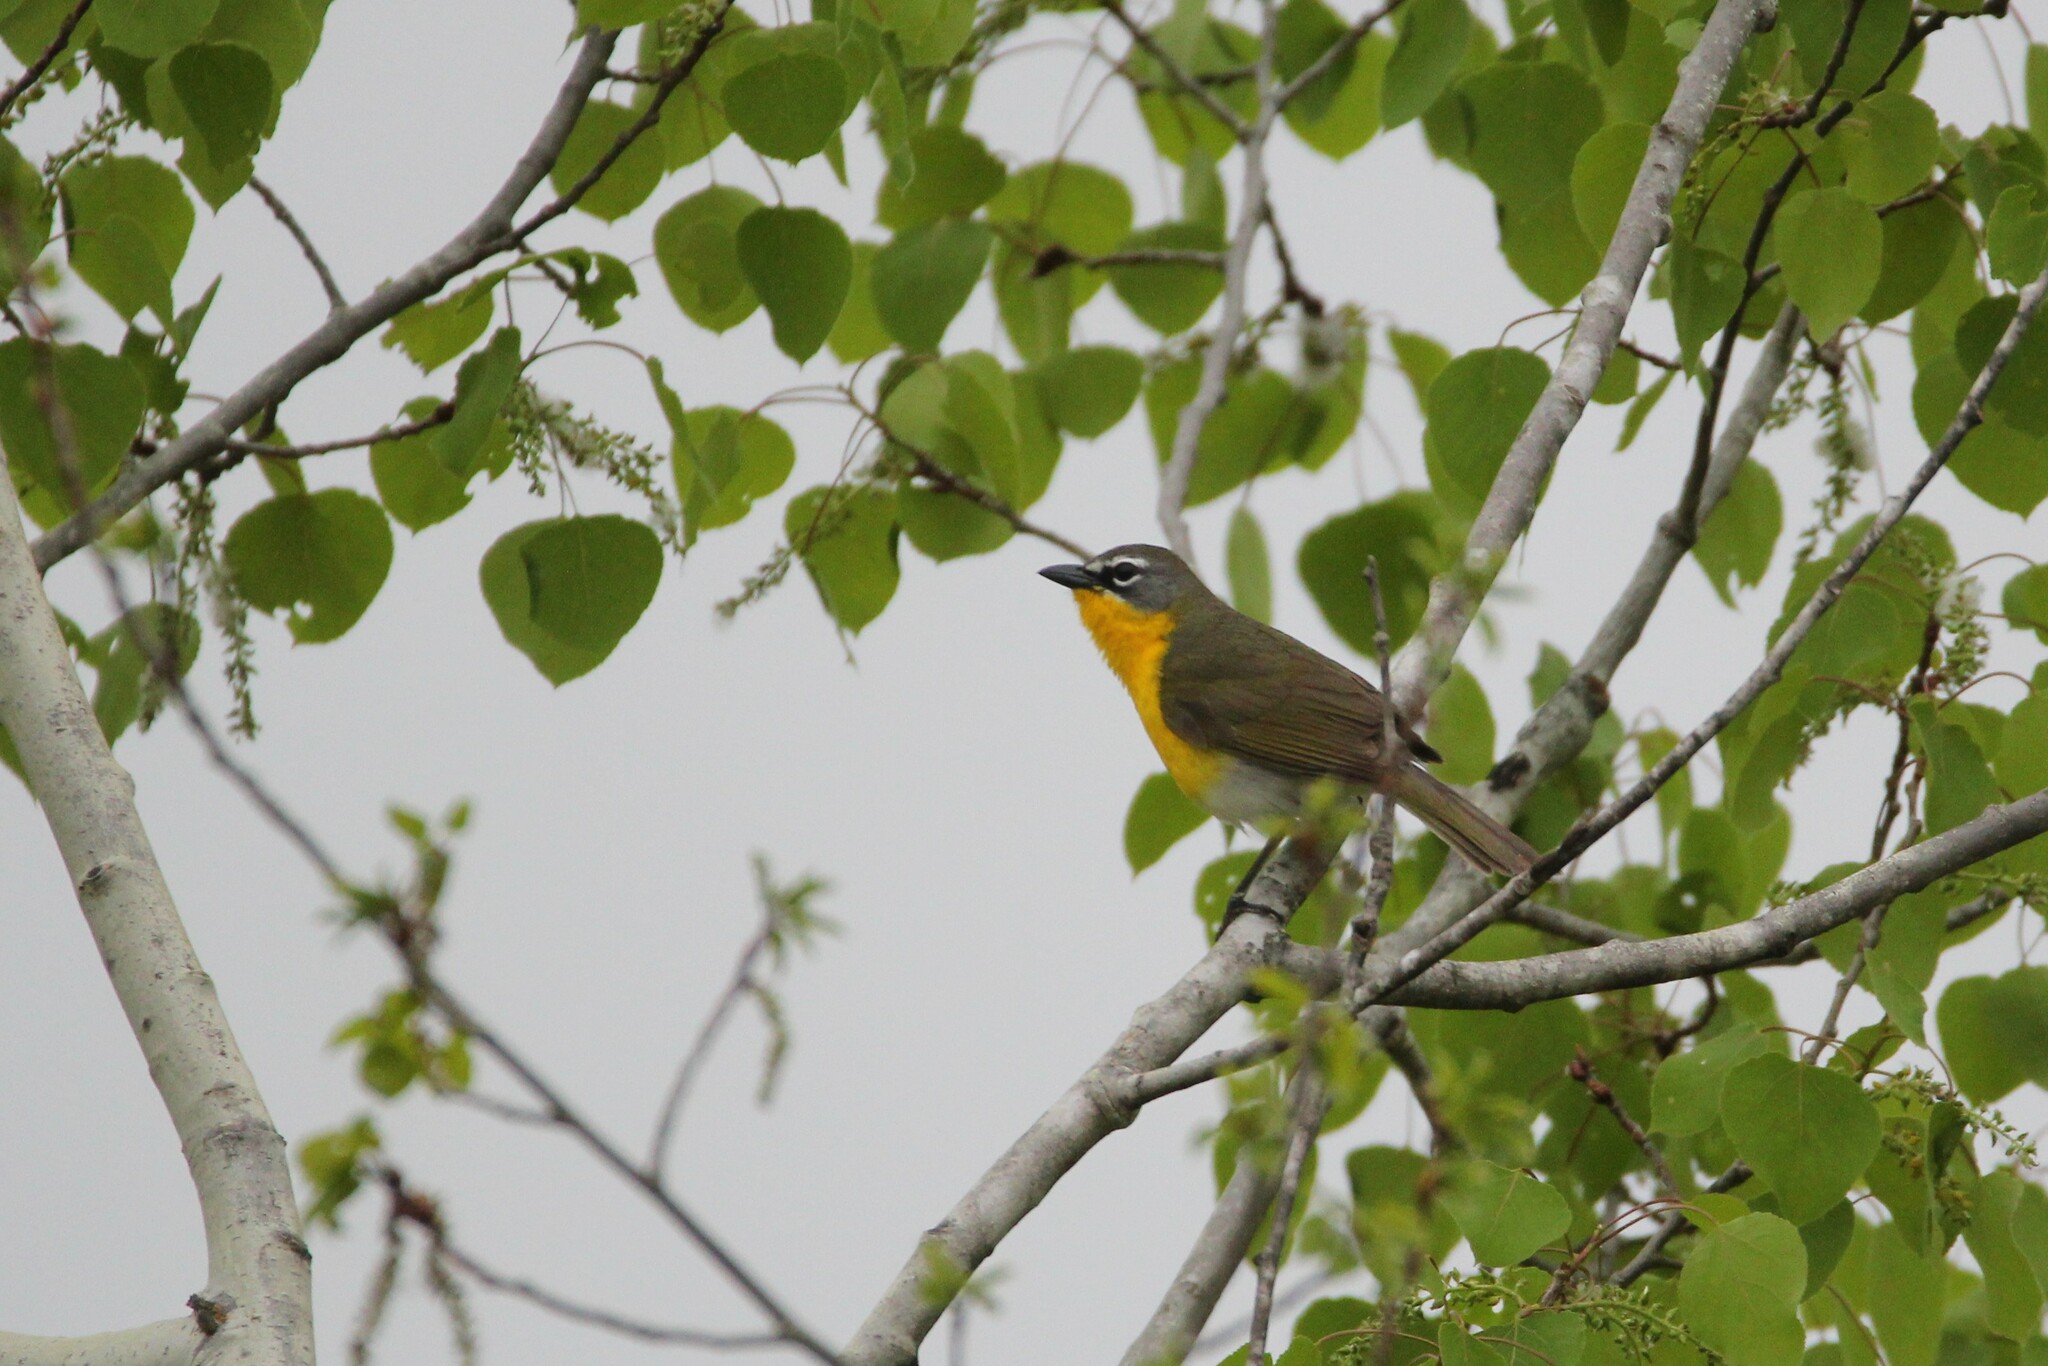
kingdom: Animalia
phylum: Chordata
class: Aves
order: Passeriformes
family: Parulidae
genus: Icteria
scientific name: Icteria virens
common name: Yellow-breasted chat
